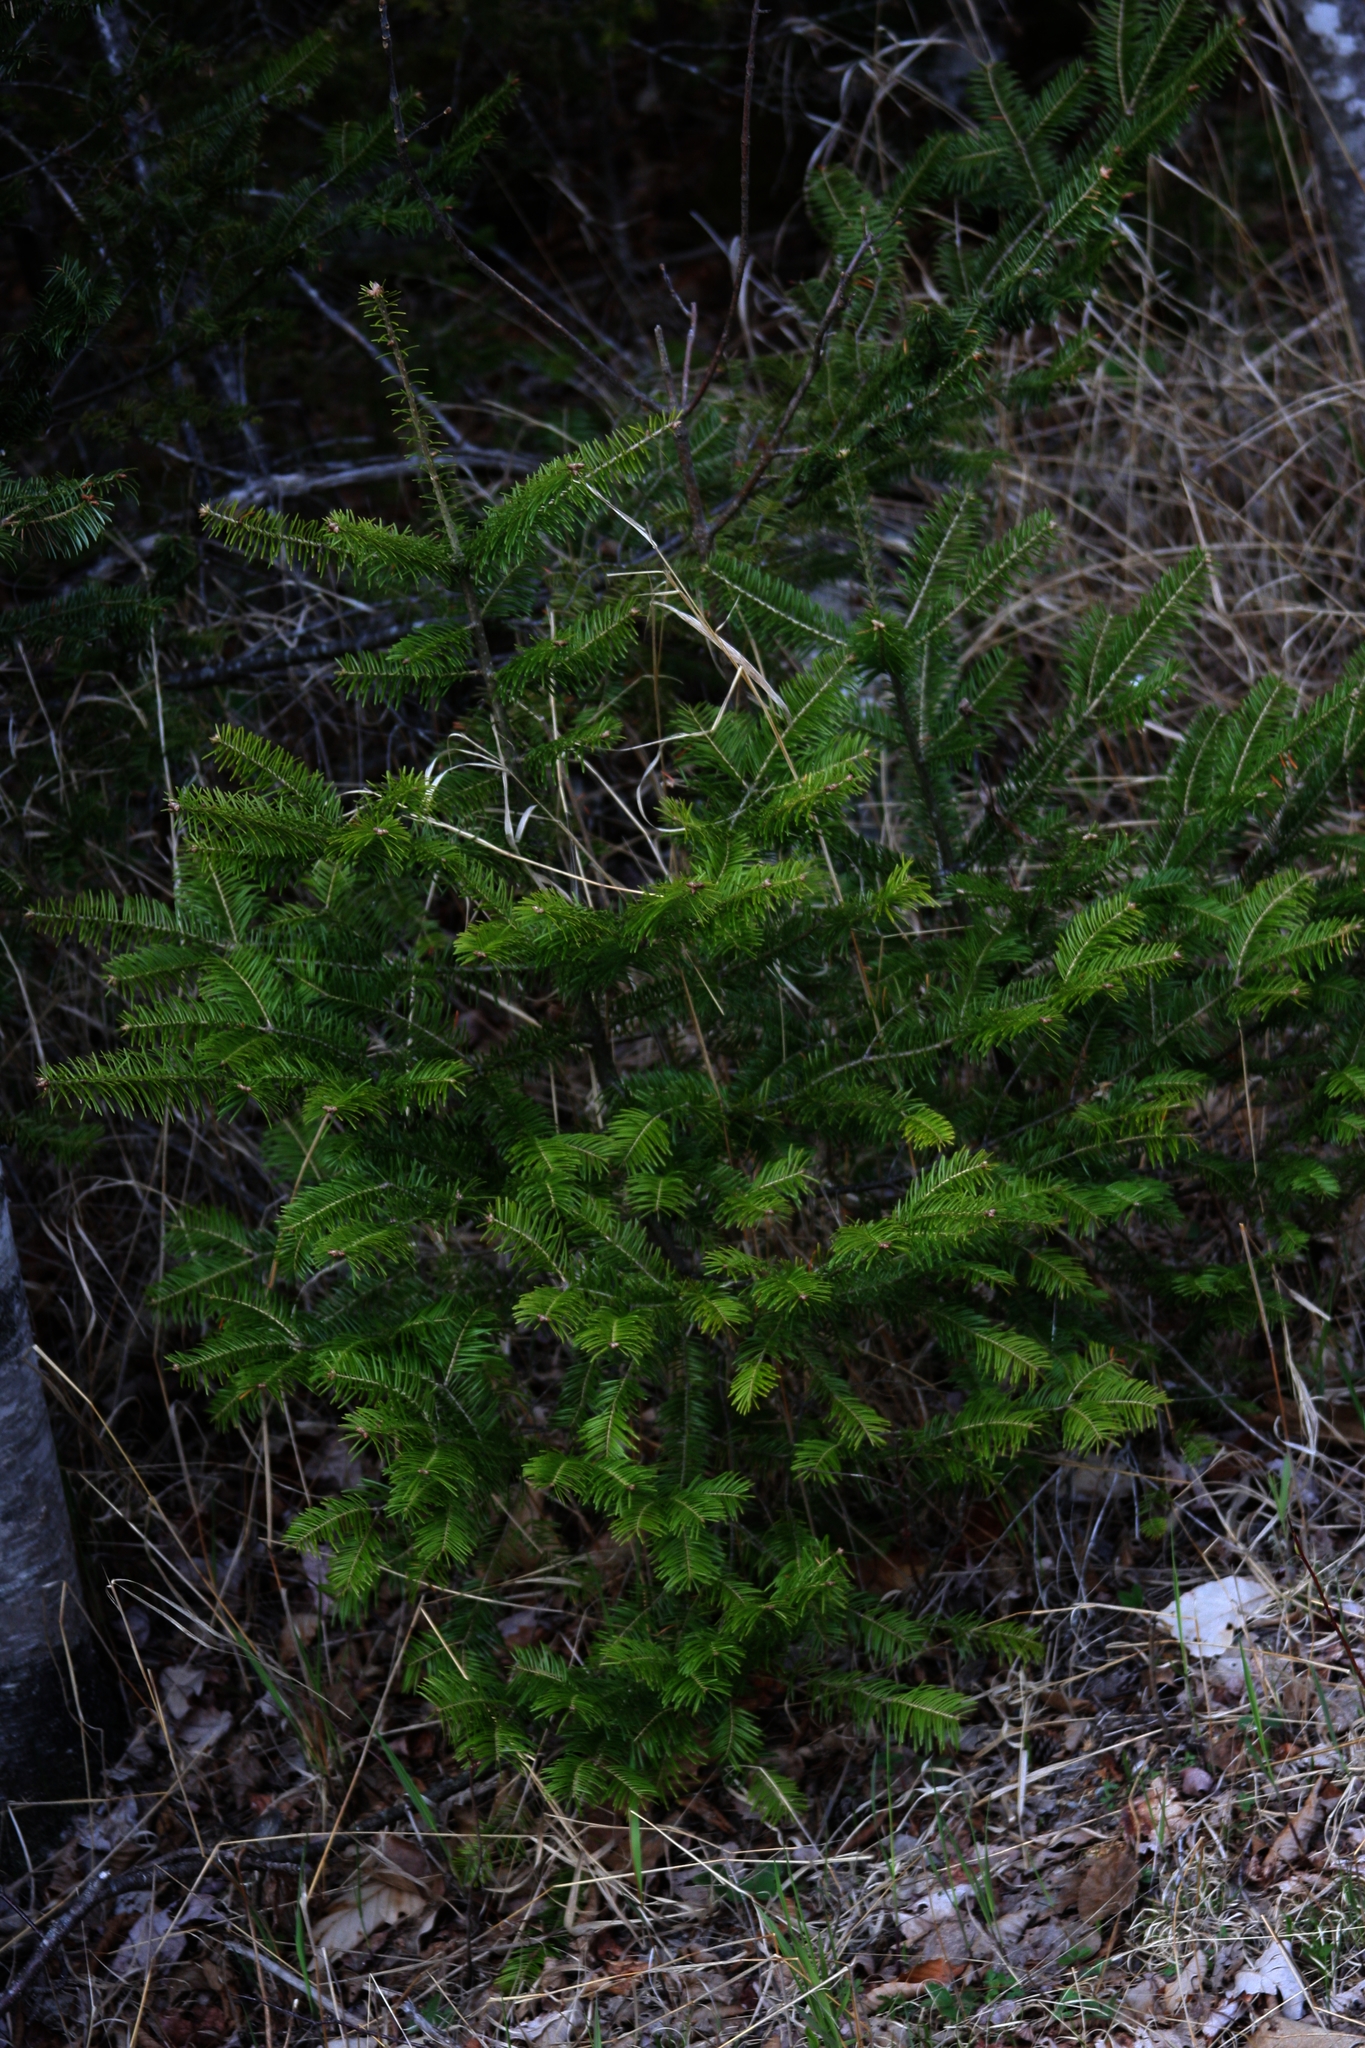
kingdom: Plantae
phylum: Tracheophyta
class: Pinopsida
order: Pinales
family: Pinaceae
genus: Abies
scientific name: Abies balsamea
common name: Balsam fir
